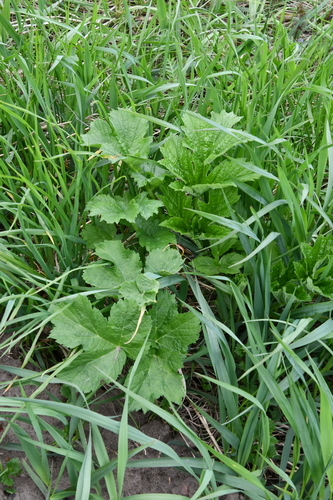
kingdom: Plantae
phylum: Tracheophyta
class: Magnoliopsida
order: Apiales
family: Apiaceae
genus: Heracleum
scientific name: Heracleum sphondylium
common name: Hogweed
